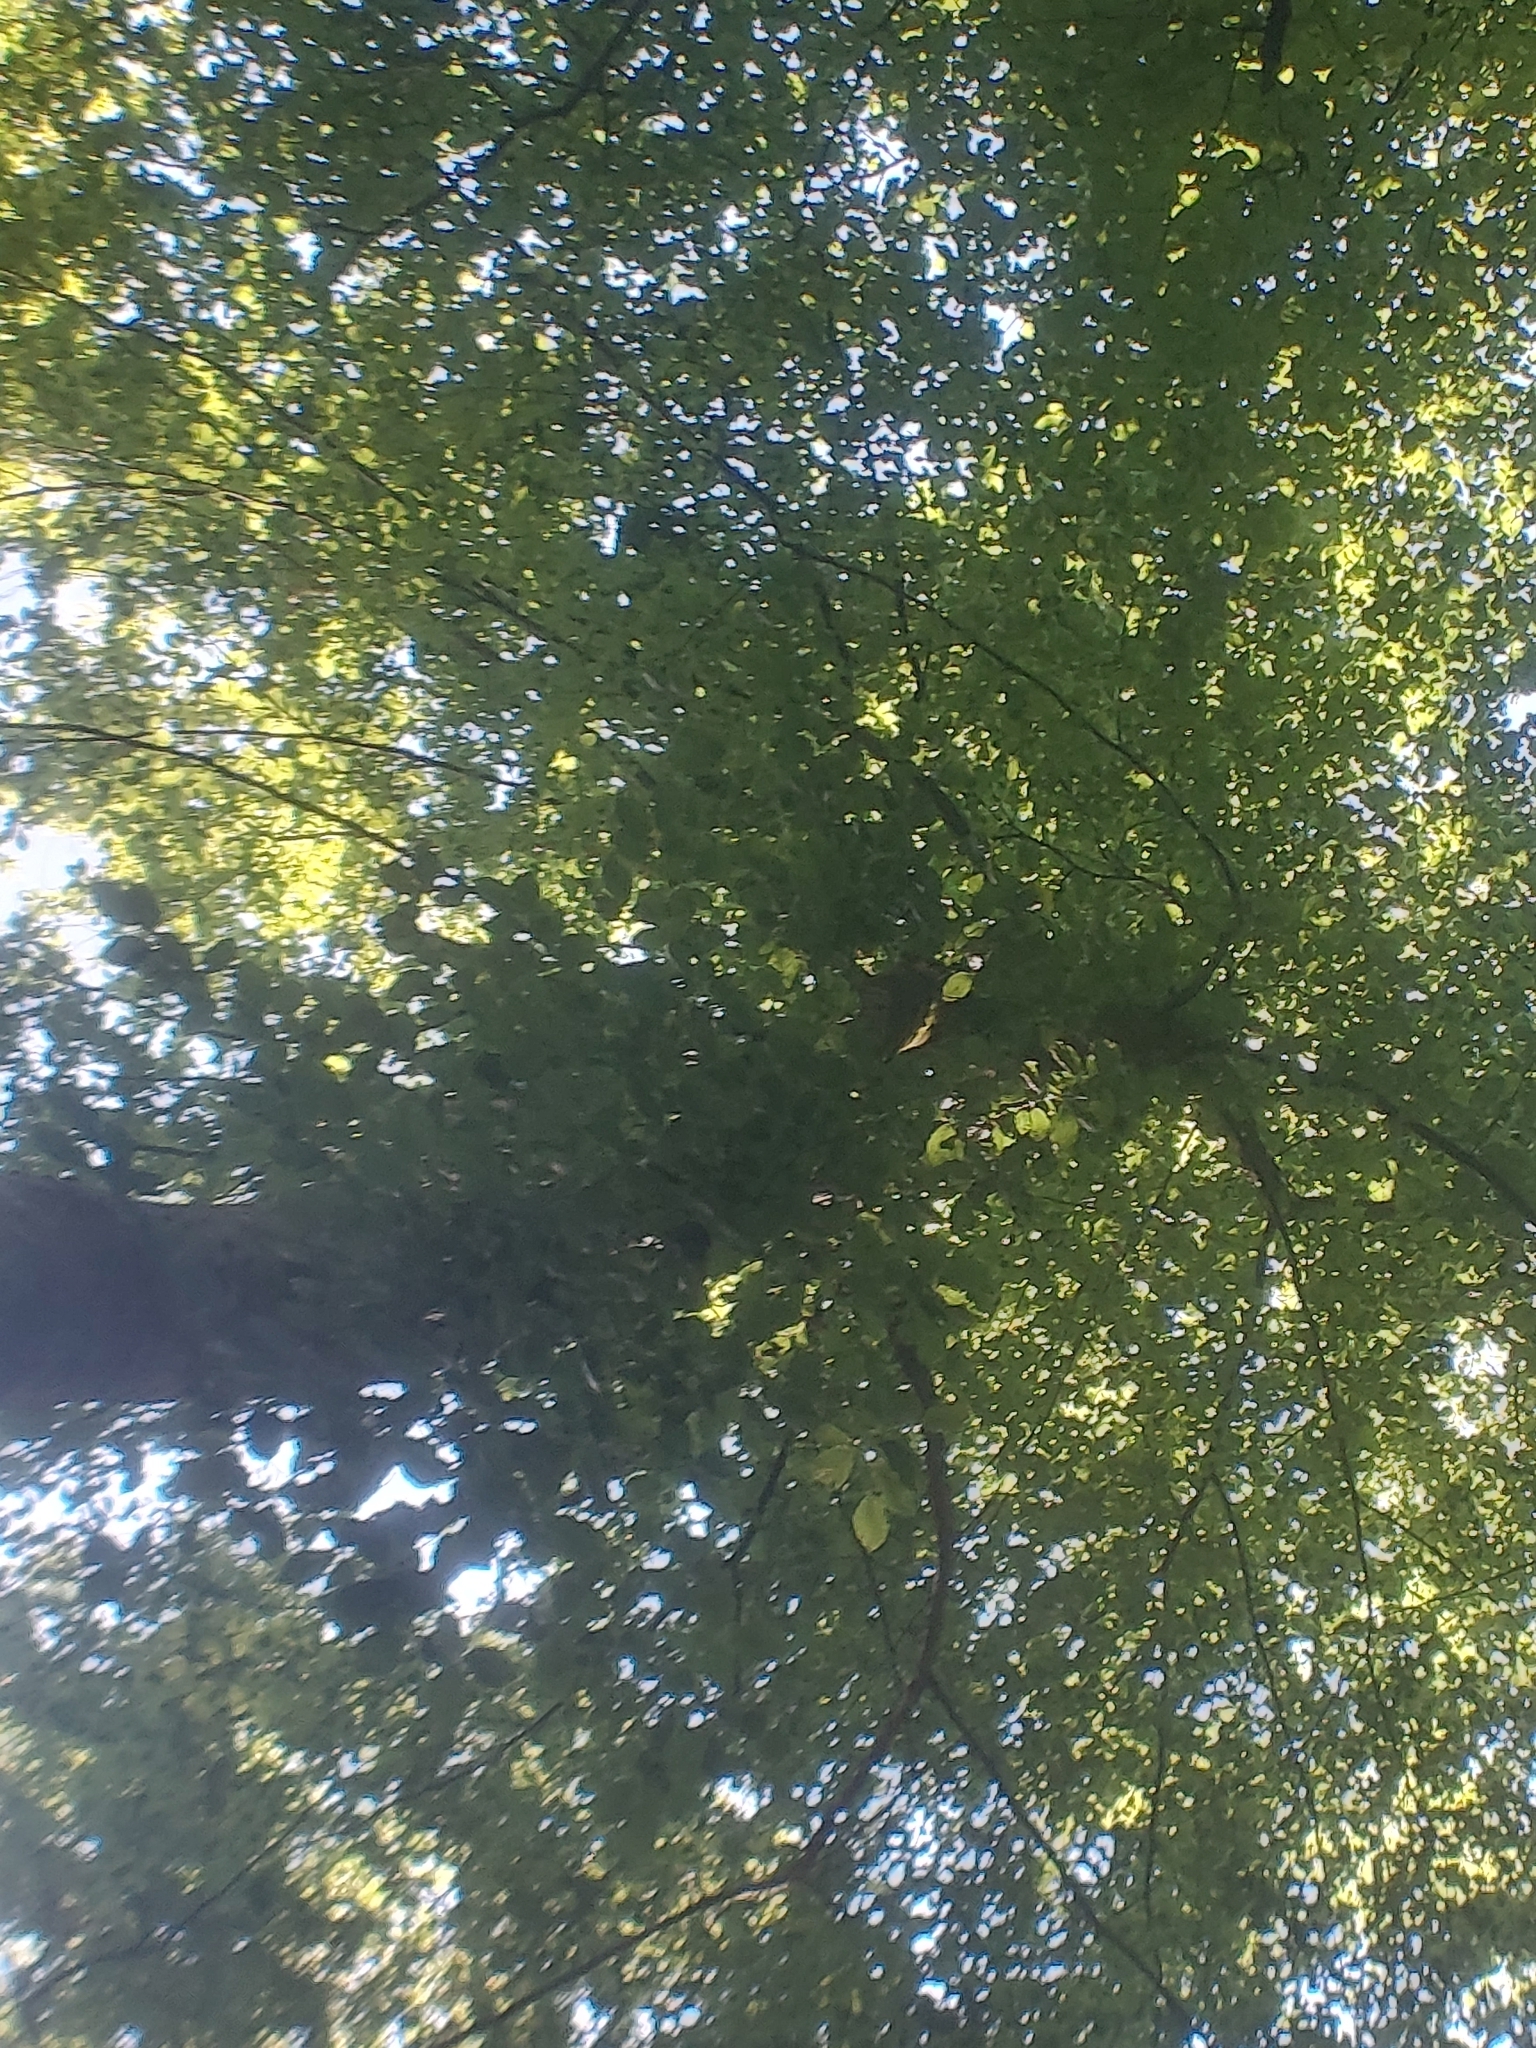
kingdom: Plantae
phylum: Tracheophyta
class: Magnoliopsida
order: Fagales
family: Fagaceae
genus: Fagus
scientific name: Fagus sylvatica
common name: Beech
